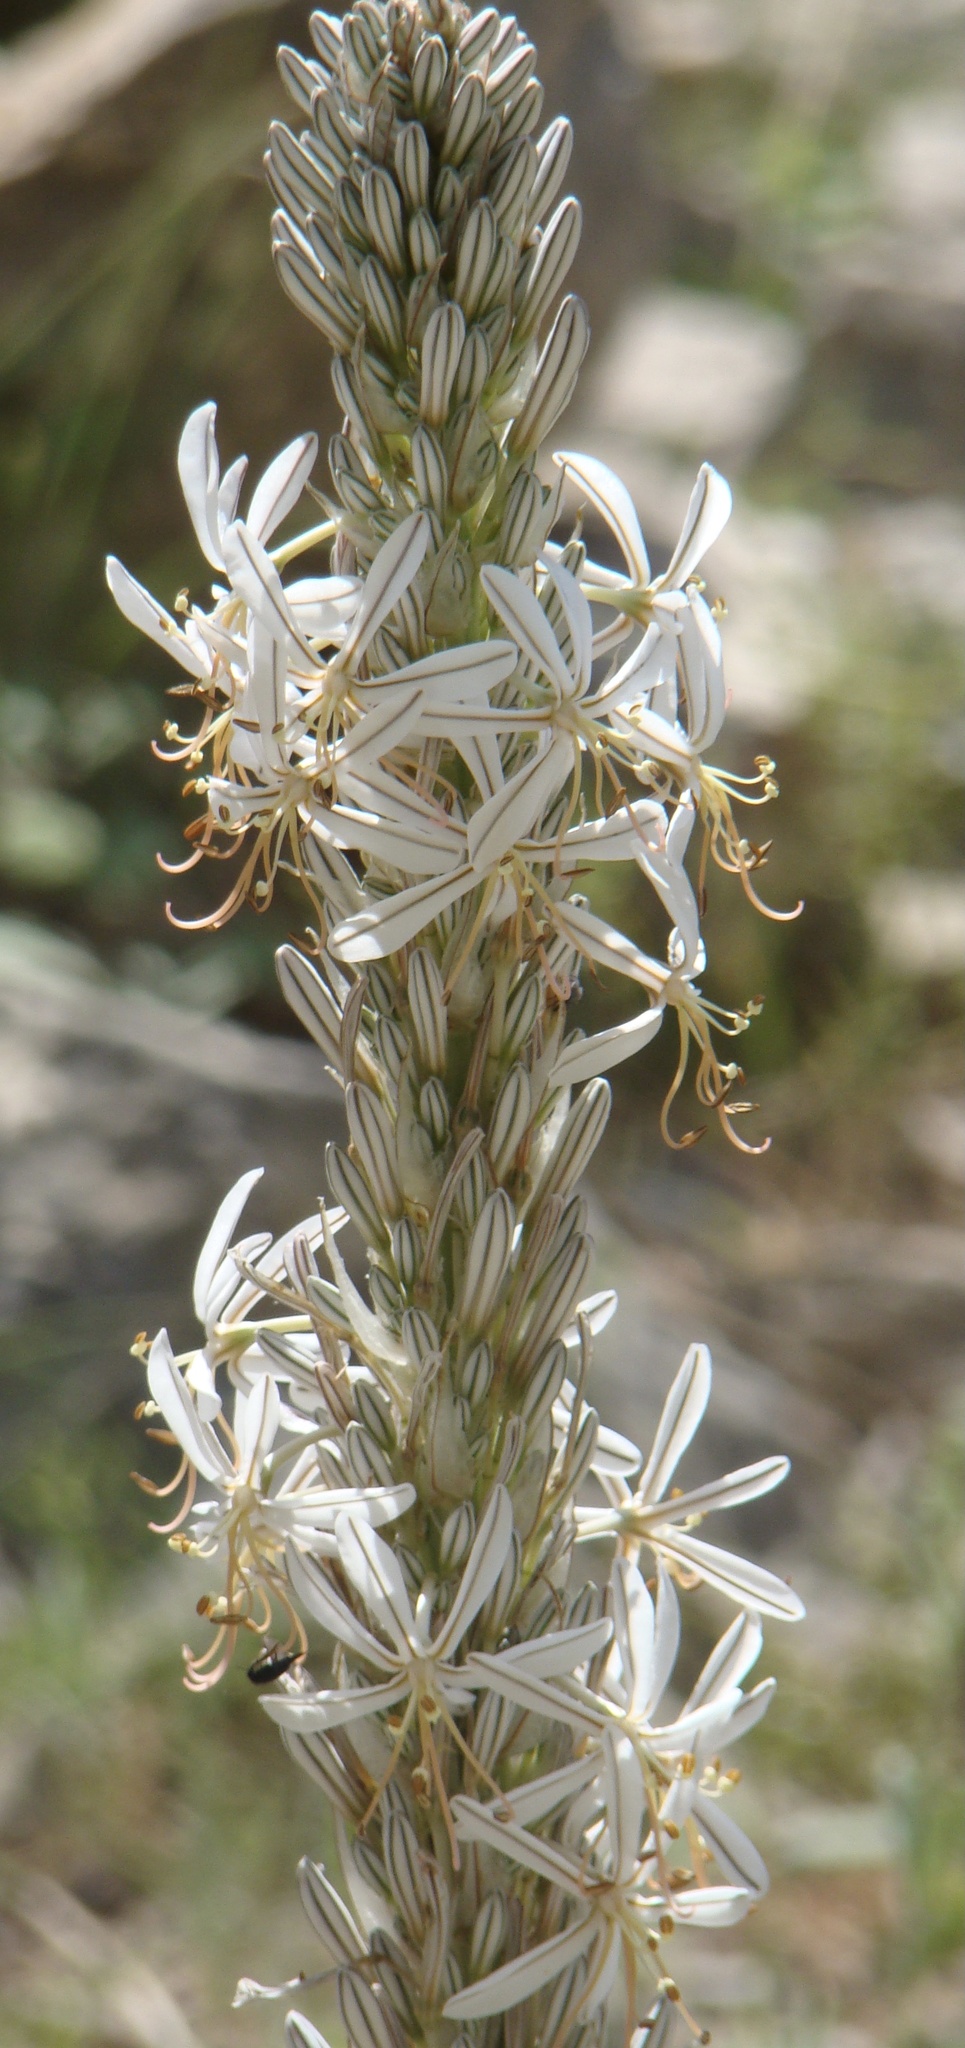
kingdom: Plantae
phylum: Tracheophyta
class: Liliopsida
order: Asparagales
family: Asphodelaceae
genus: Asphodelus
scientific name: Asphodelus ramosus
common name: Silverrod
